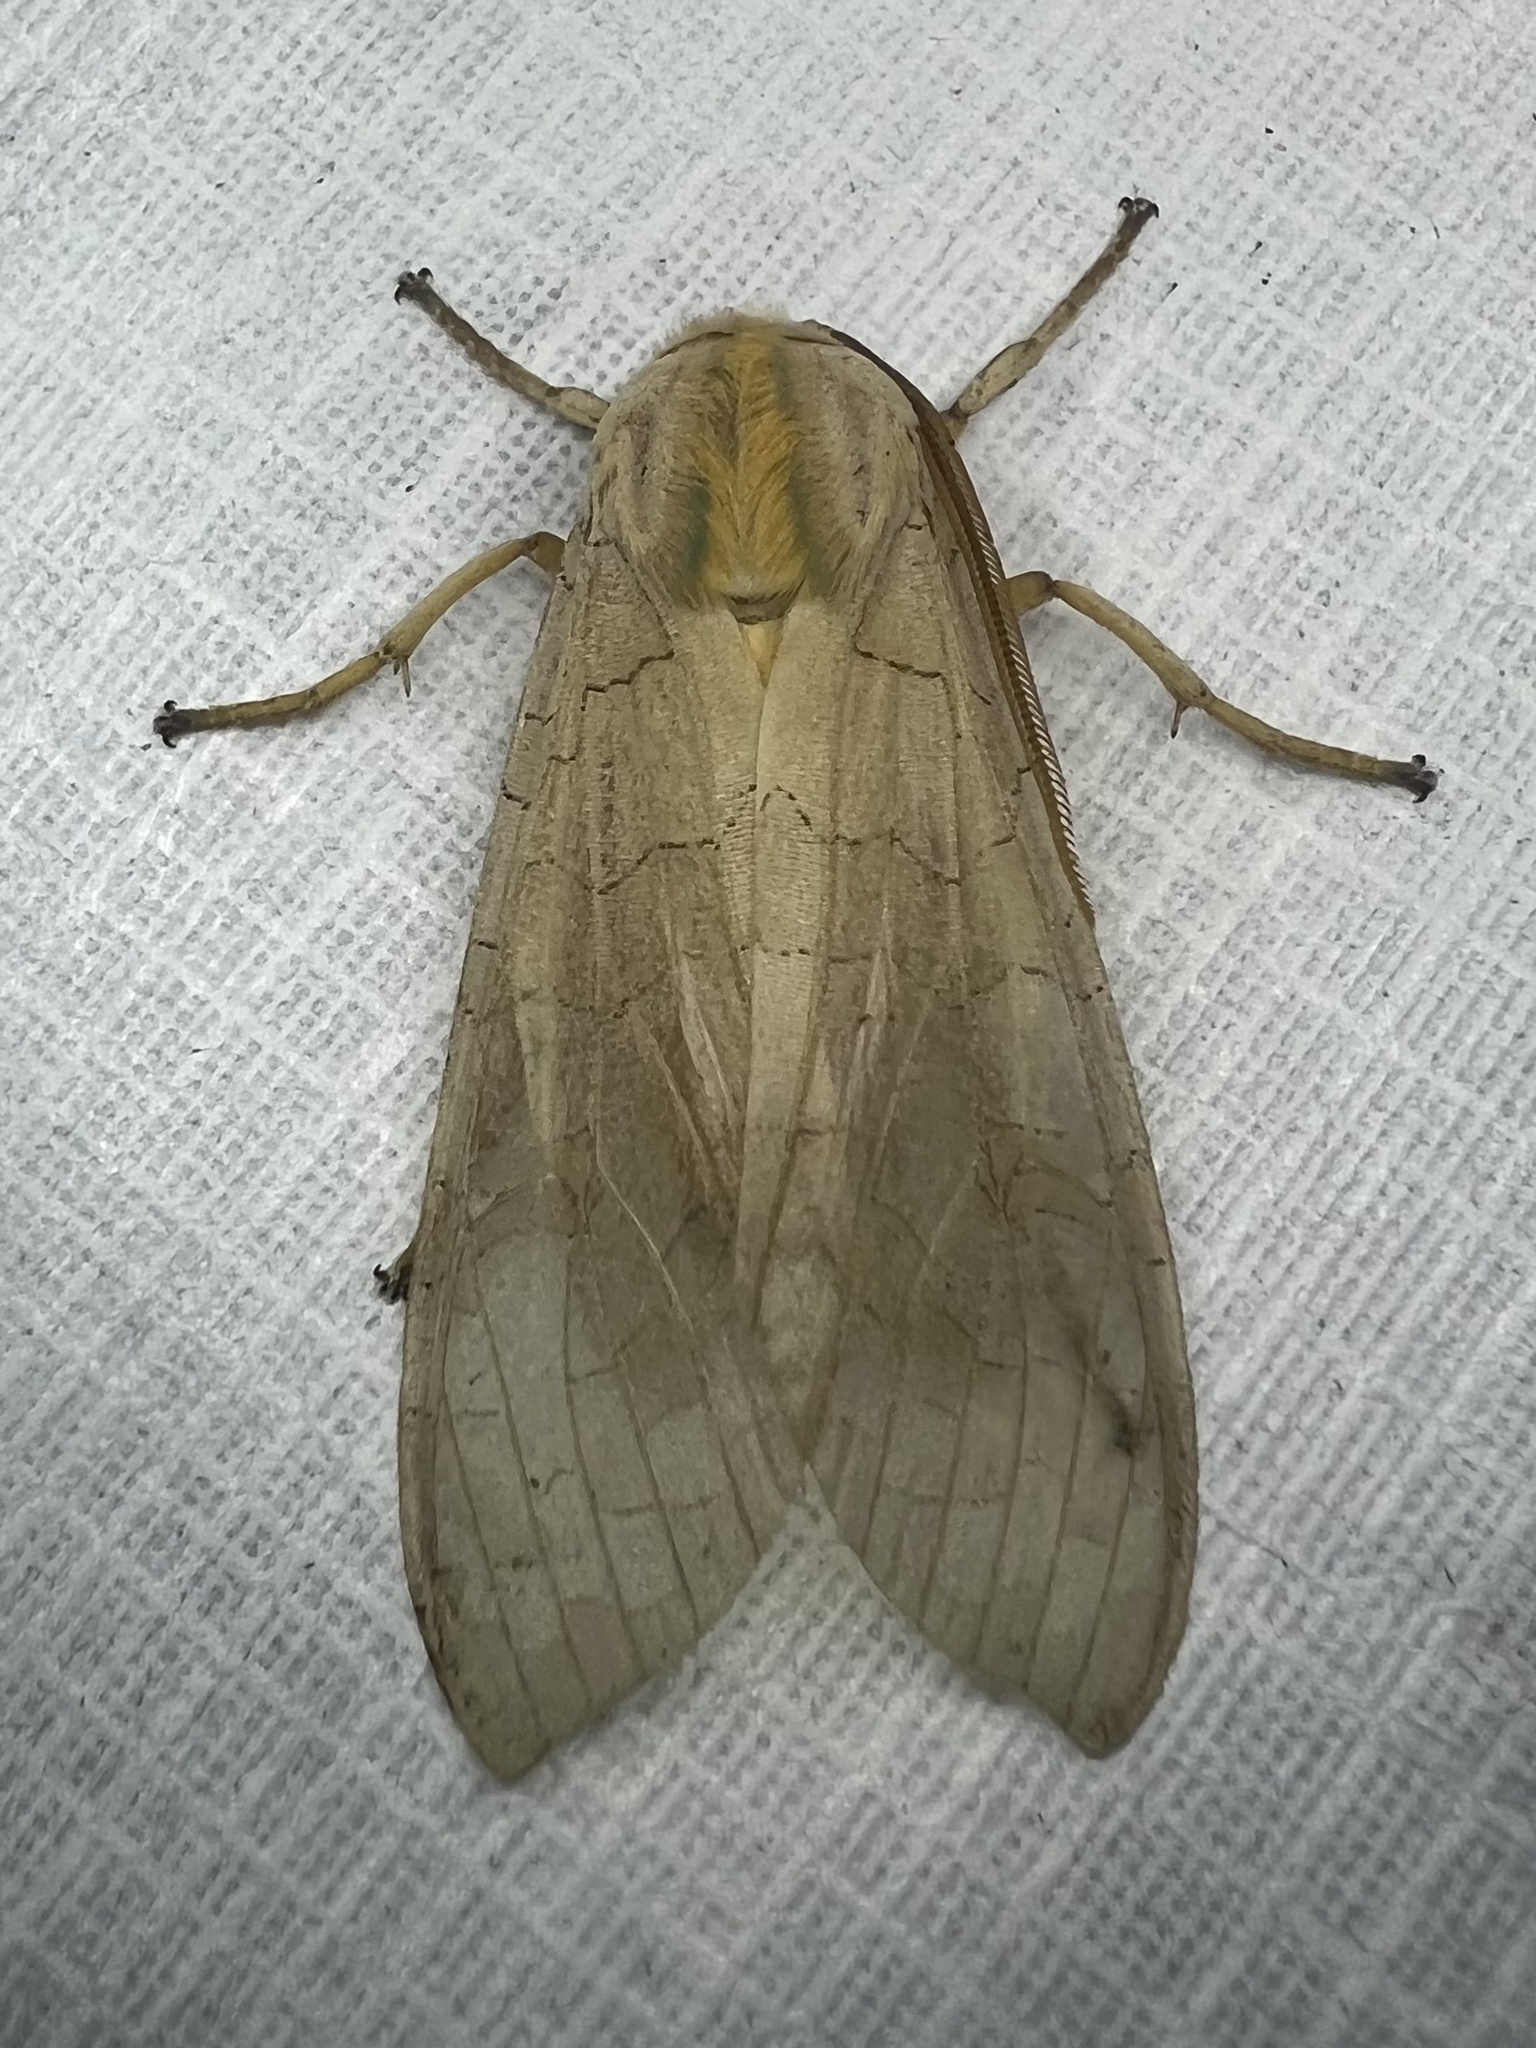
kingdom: Animalia
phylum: Arthropoda
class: Insecta
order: Lepidoptera
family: Erebidae
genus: Halysidota
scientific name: Halysidota
